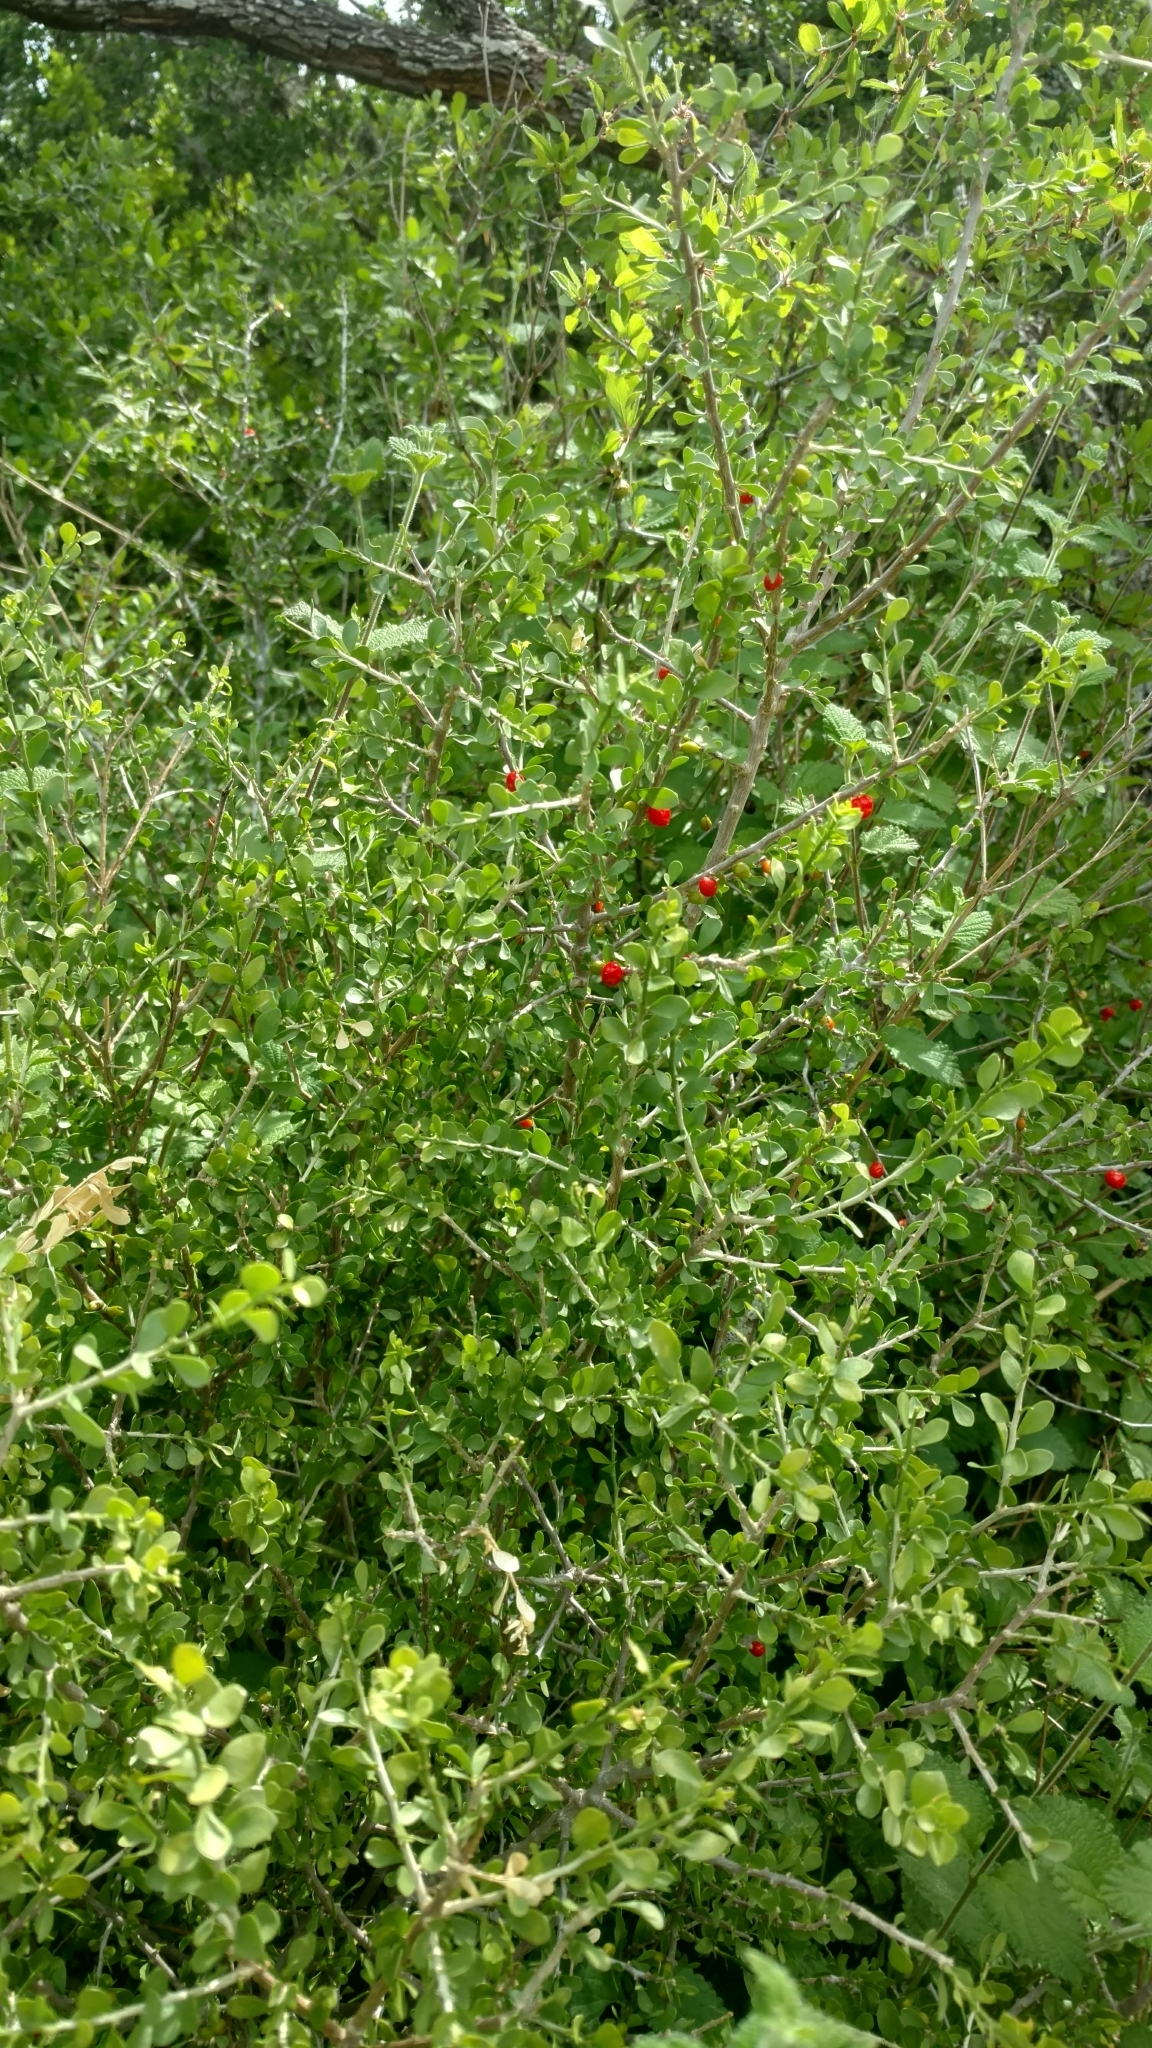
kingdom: Plantae
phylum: Tracheophyta
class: Magnoliopsida
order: Celastrales
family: Celastraceae
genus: Schaefferia
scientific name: Schaefferia cuneifolia
